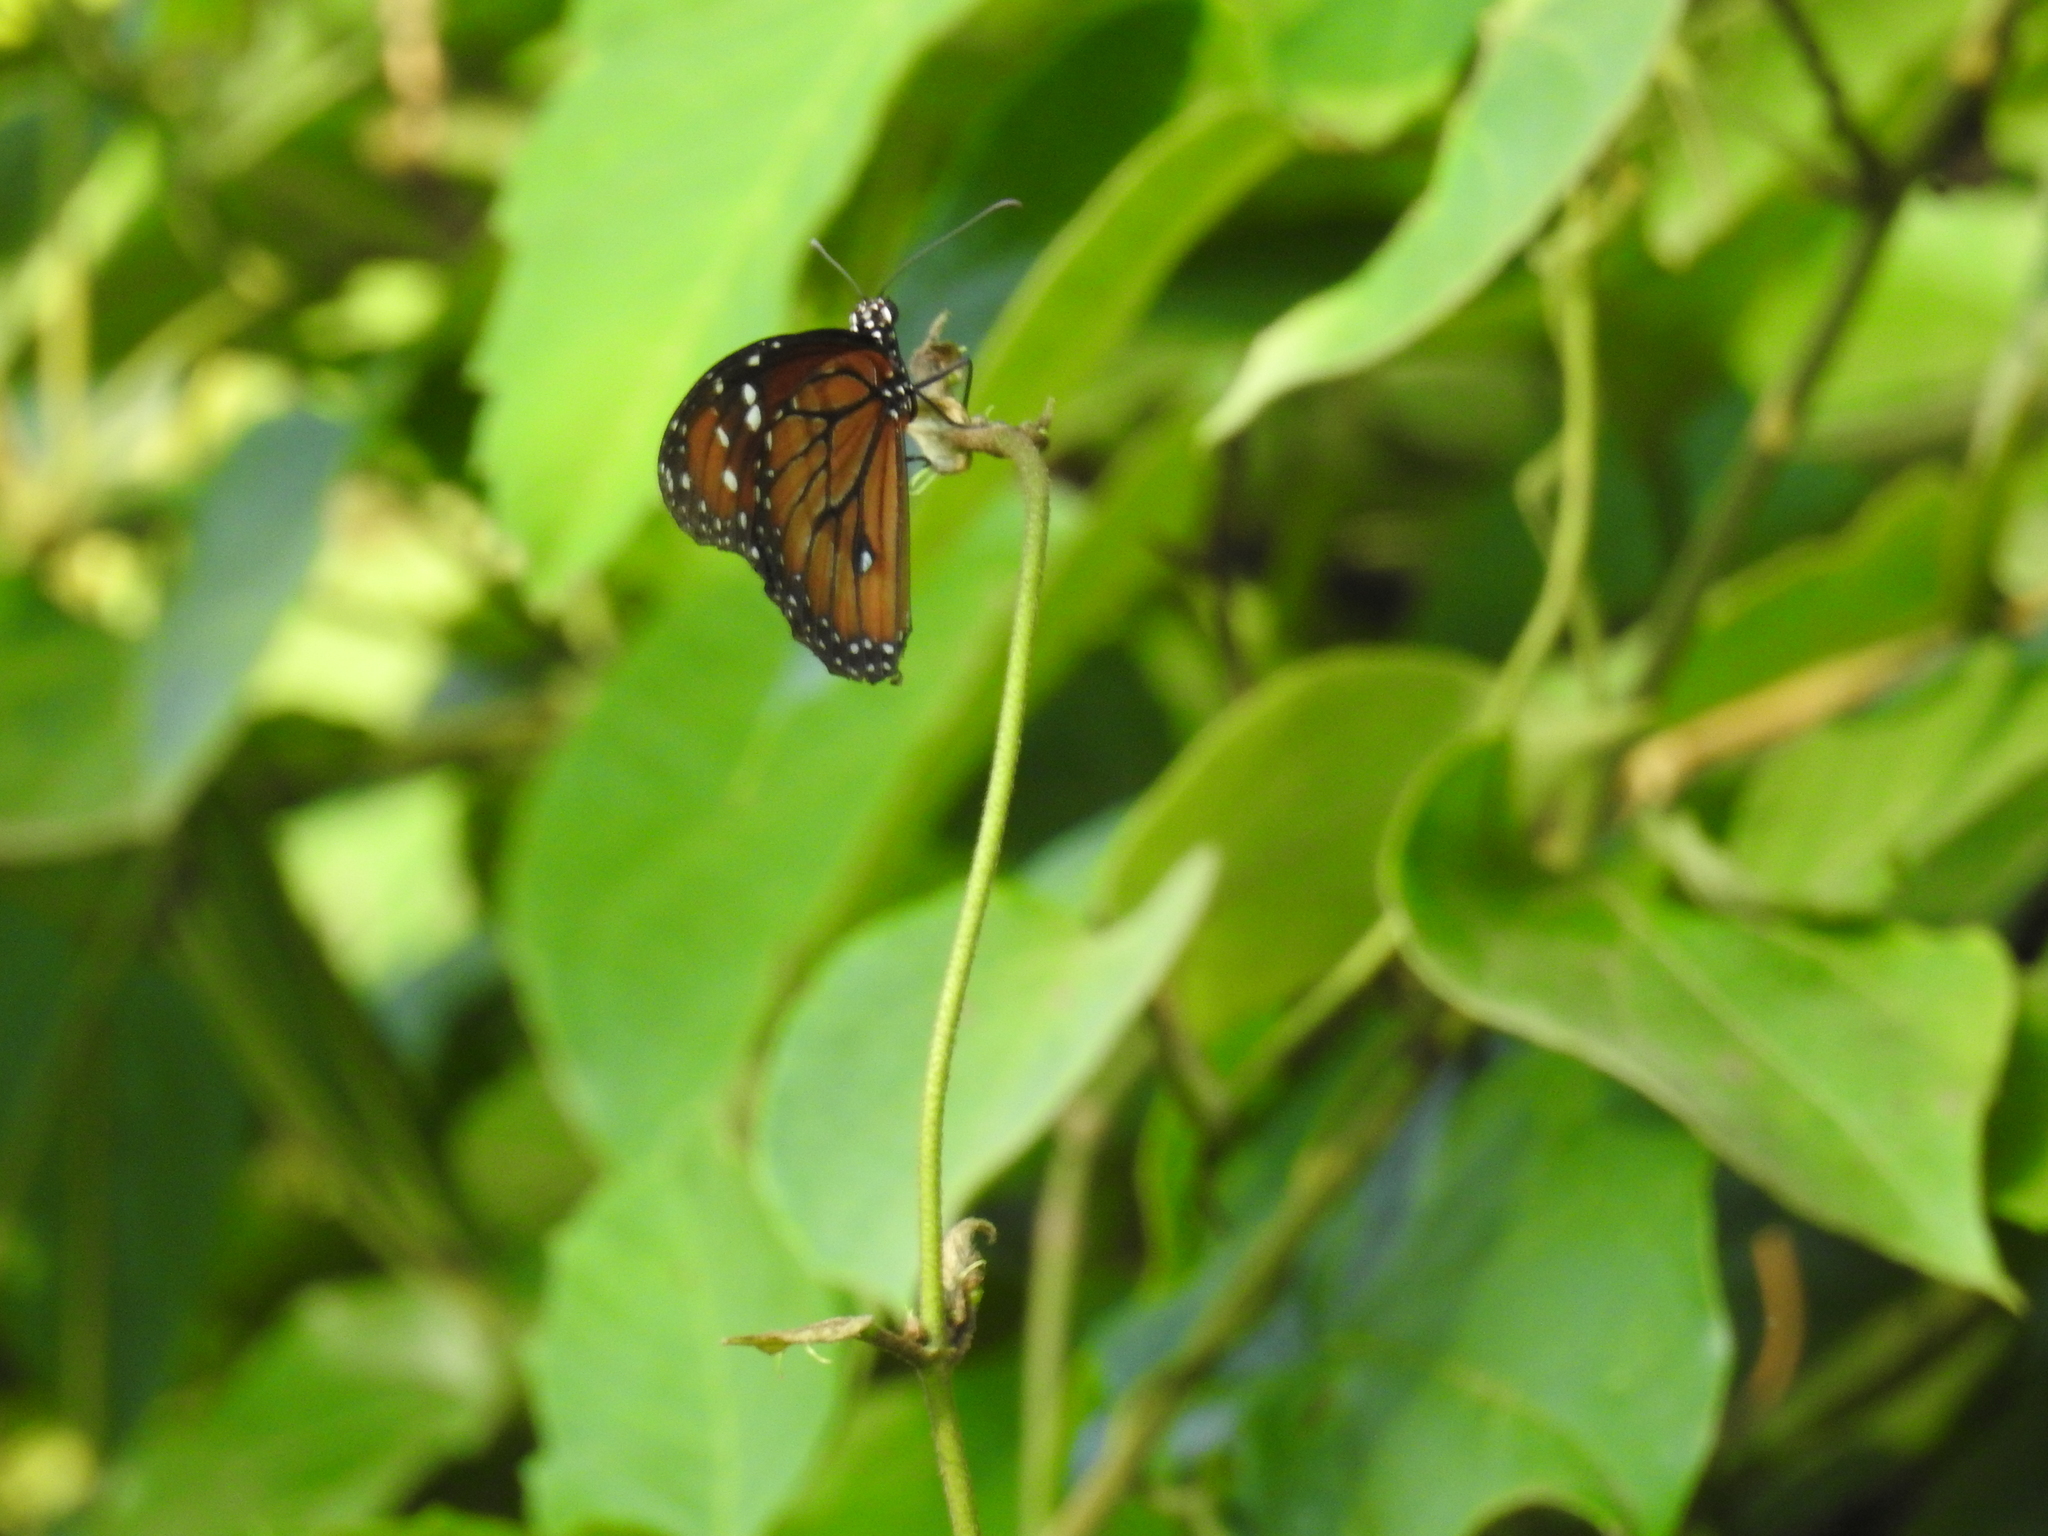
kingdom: Animalia
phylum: Arthropoda
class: Insecta
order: Lepidoptera
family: Nymphalidae
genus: Danaus
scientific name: Danaus eresimus
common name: Soldier
